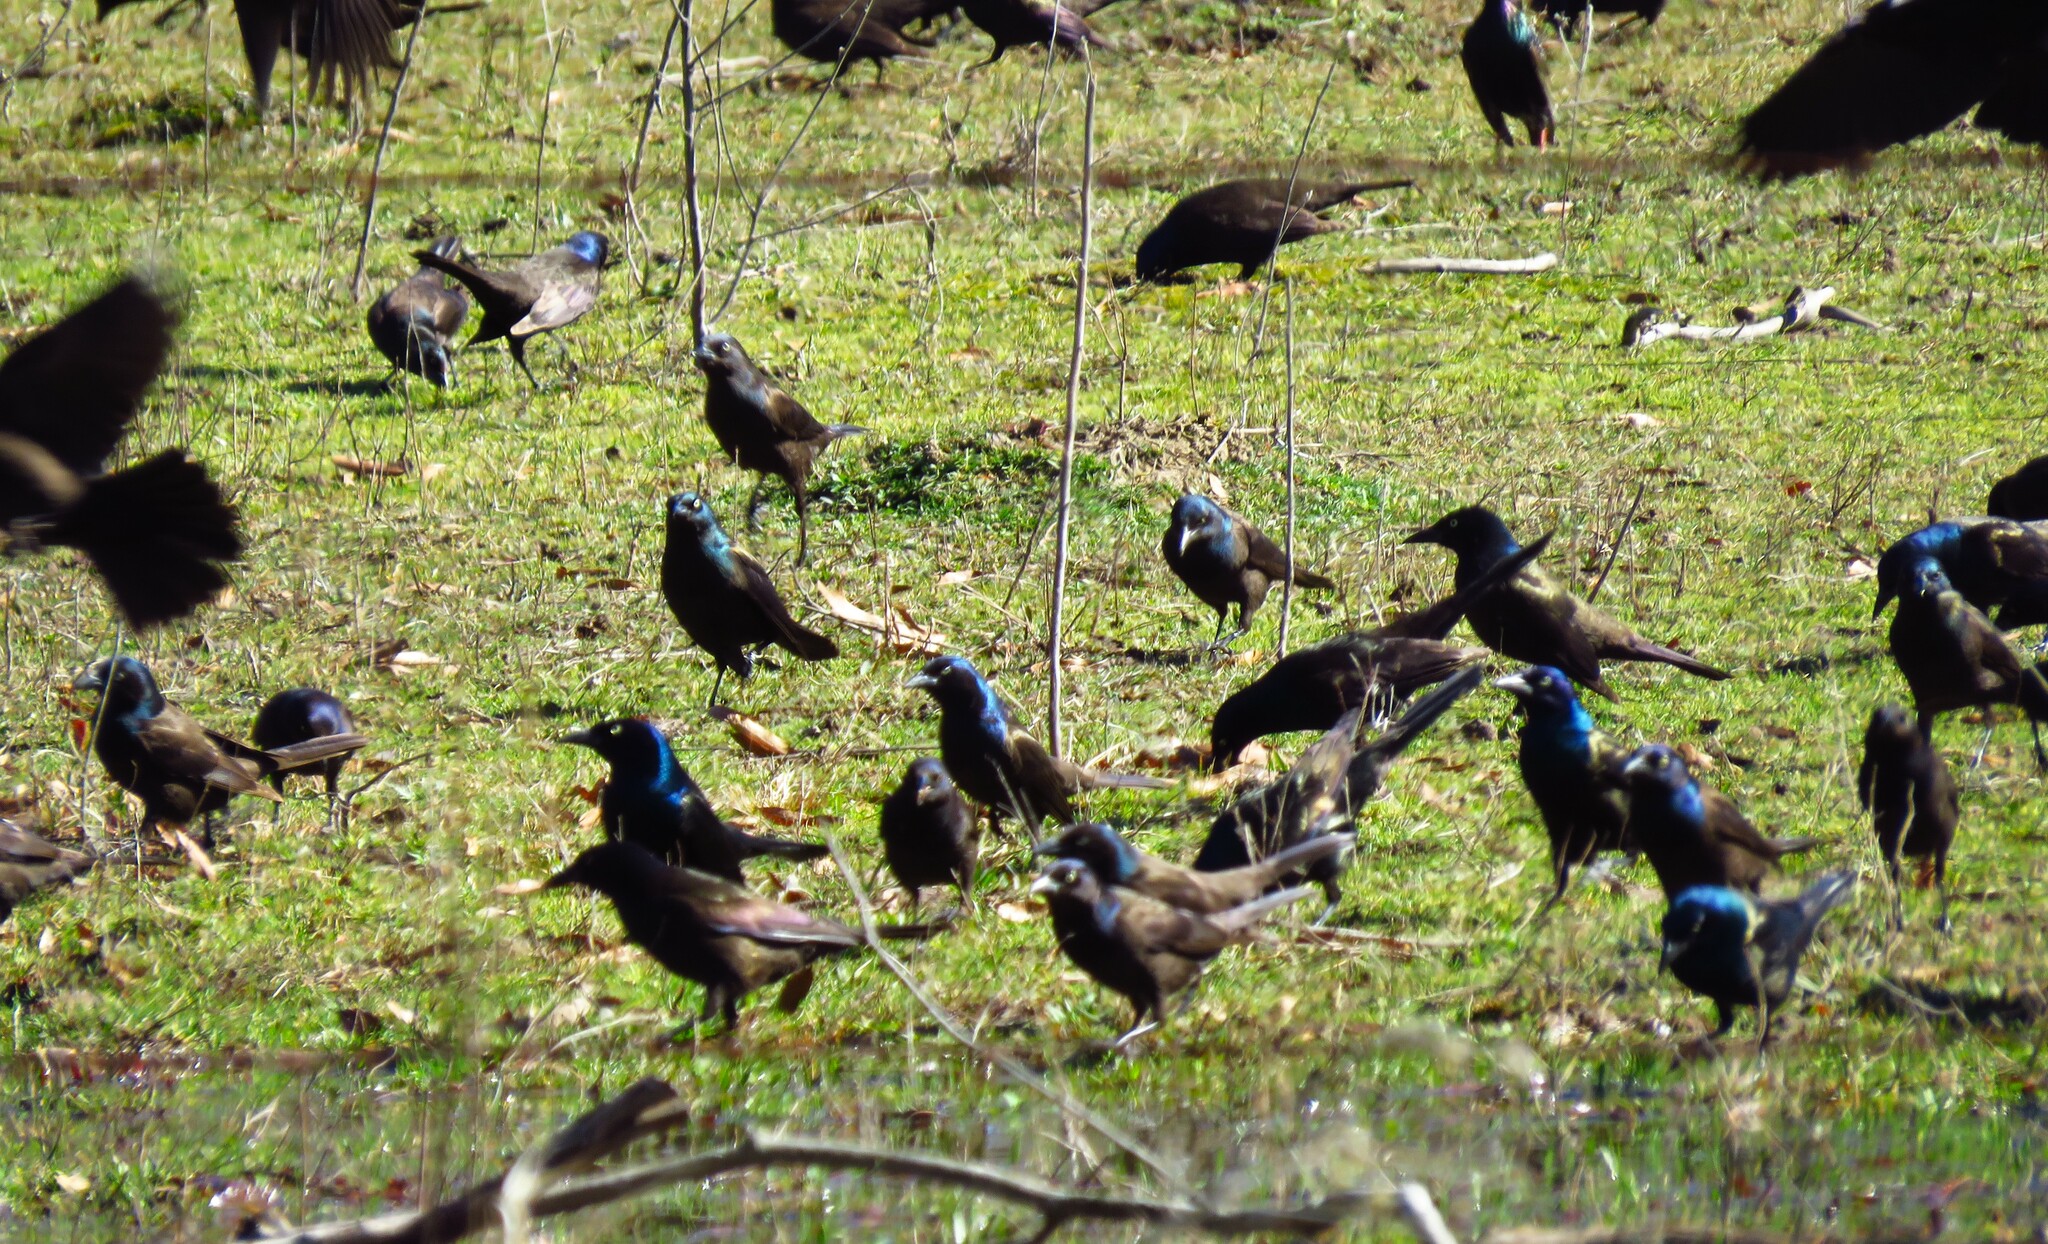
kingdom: Animalia
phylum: Chordata
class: Aves
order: Passeriformes
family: Icteridae
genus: Quiscalus
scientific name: Quiscalus quiscula
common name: Common grackle
